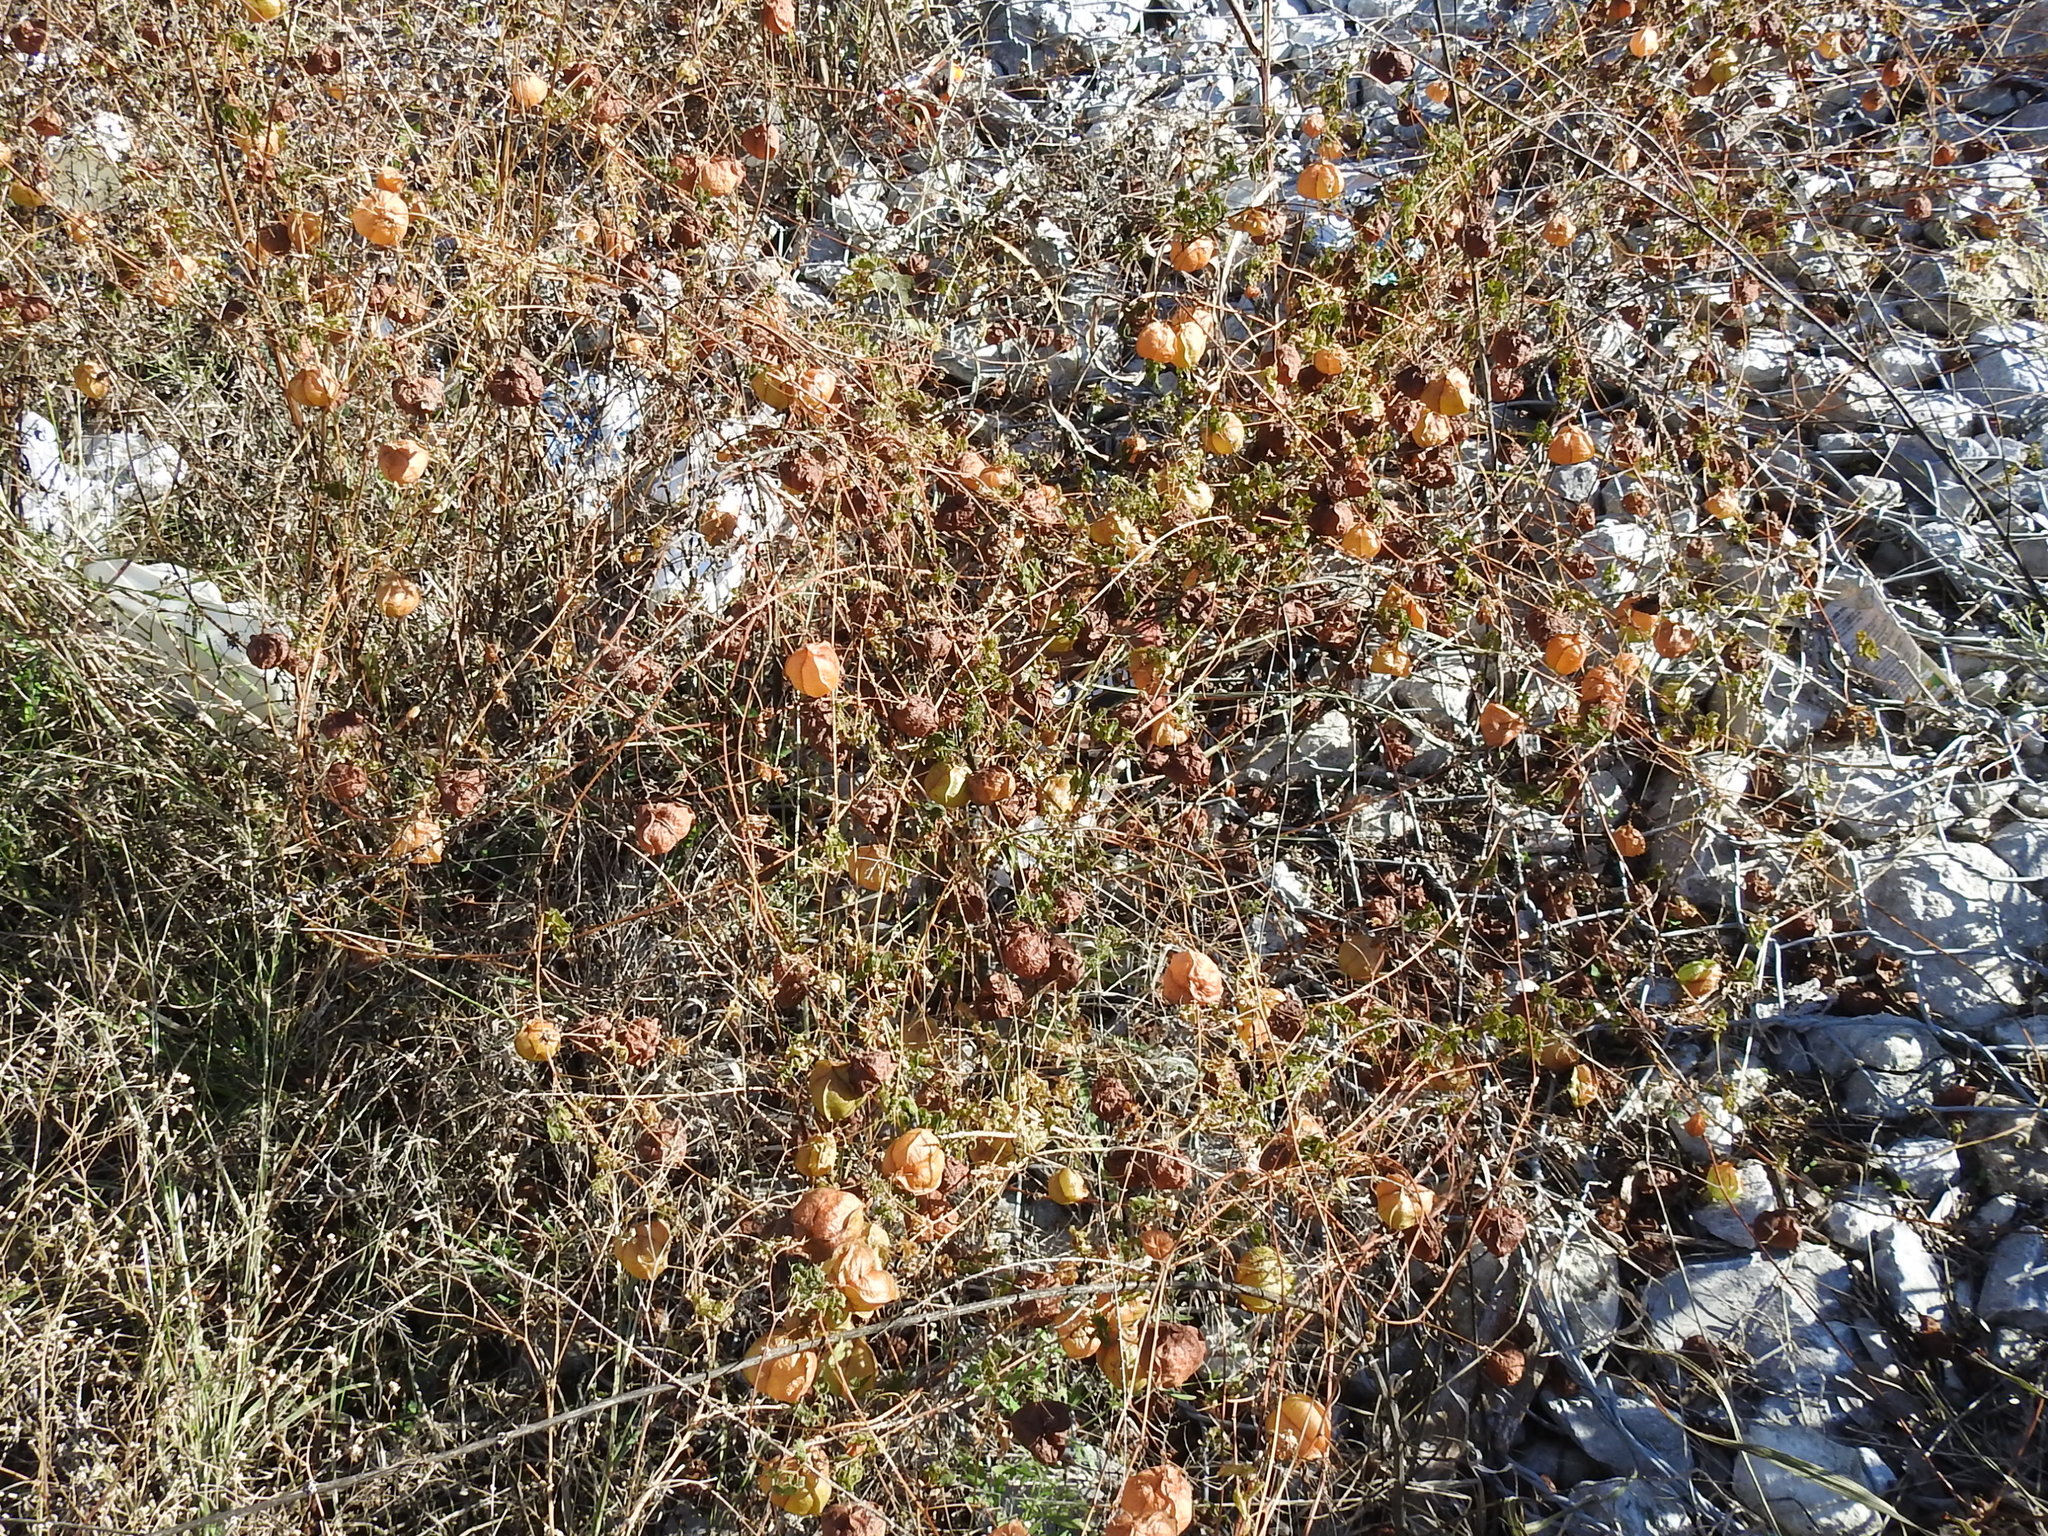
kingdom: Plantae
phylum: Tracheophyta
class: Magnoliopsida
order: Sapindales
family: Sapindaceae
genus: Cardiospermum
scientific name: Cardiospermum halicacabum
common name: Balloon vine
